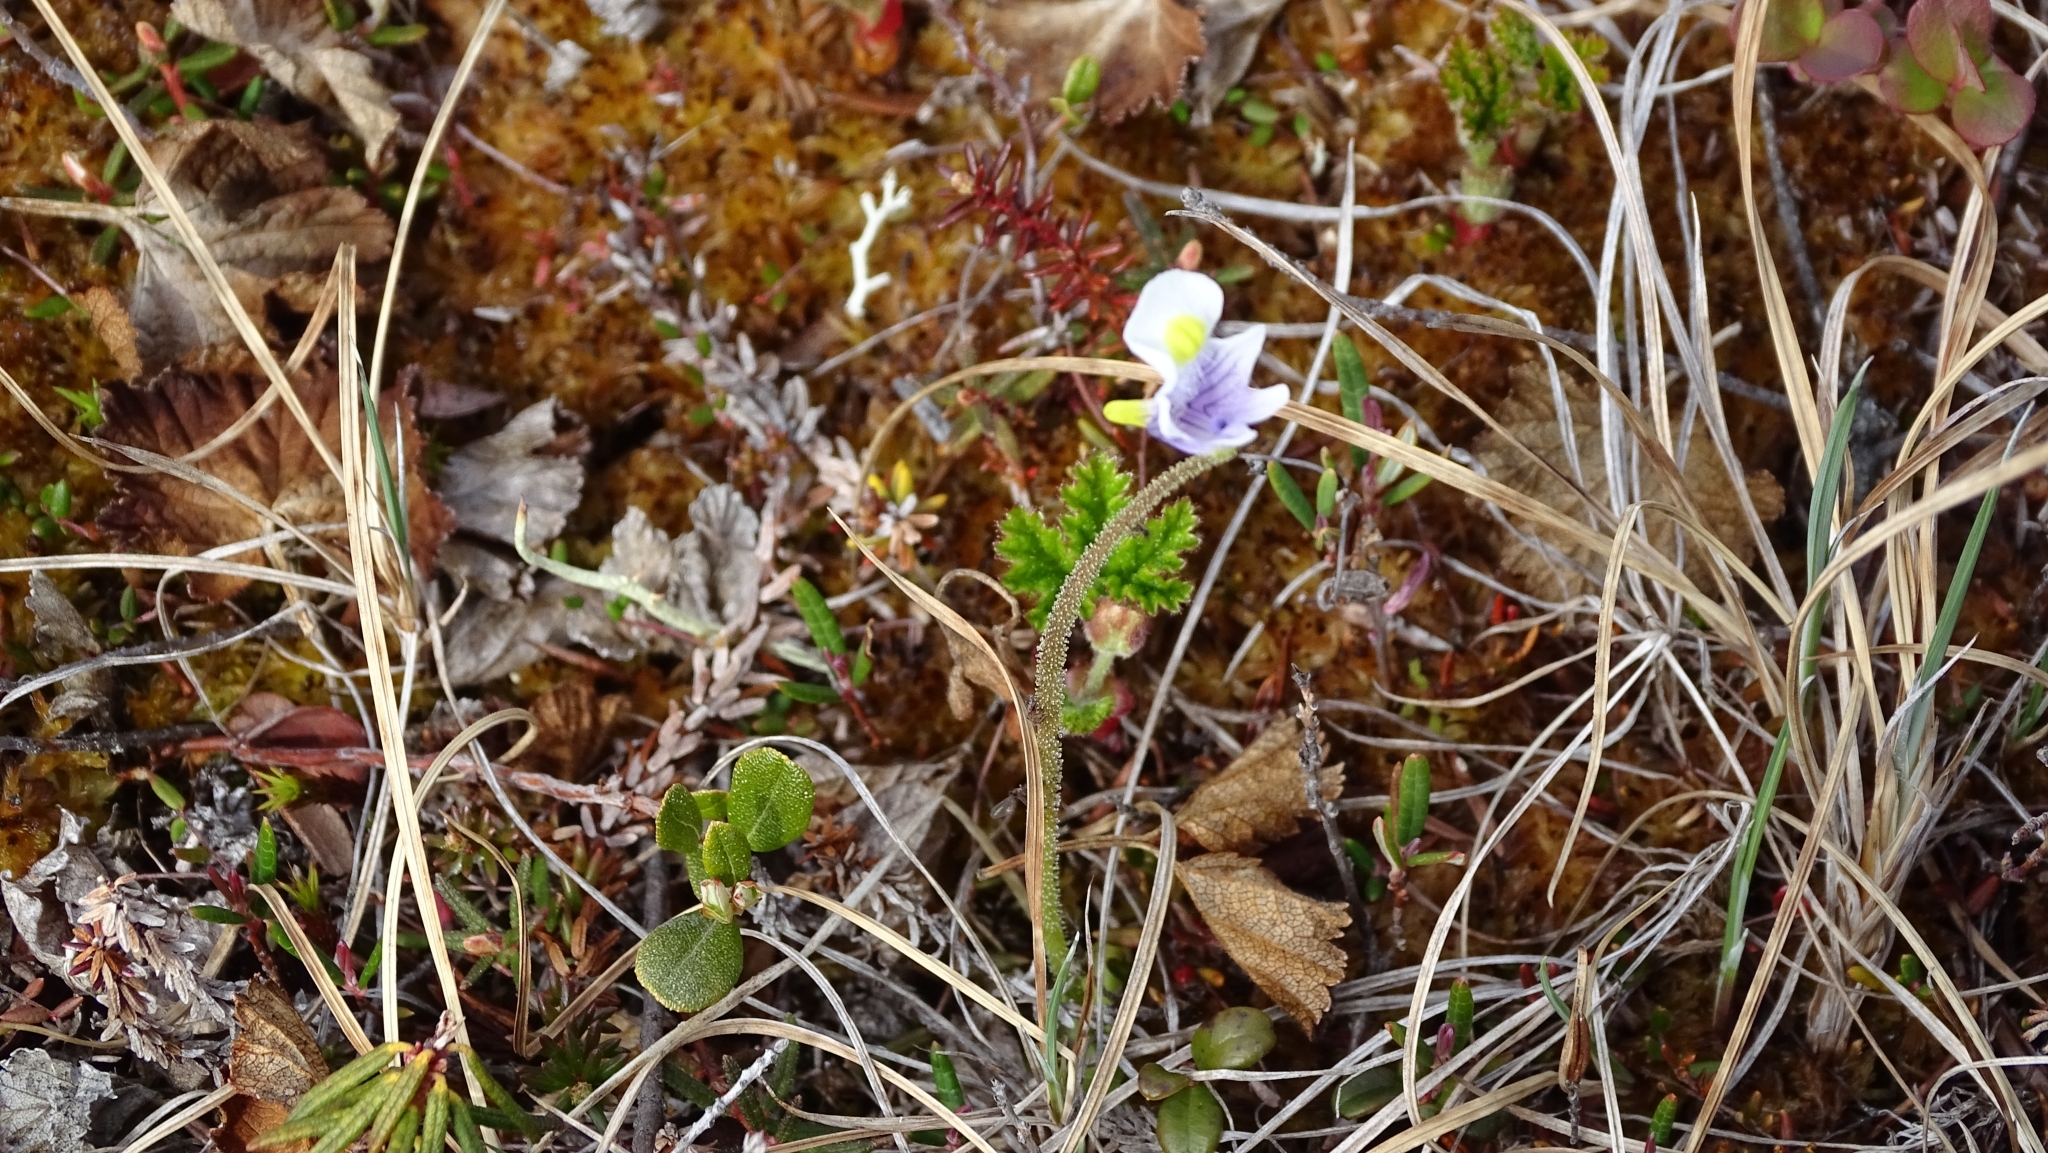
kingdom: Plantae
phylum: Tracheophyta
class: Magnoliopsida
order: Lamiales
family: Lentibulariaceae
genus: Pinguicula
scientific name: Pinguicula spathulata
